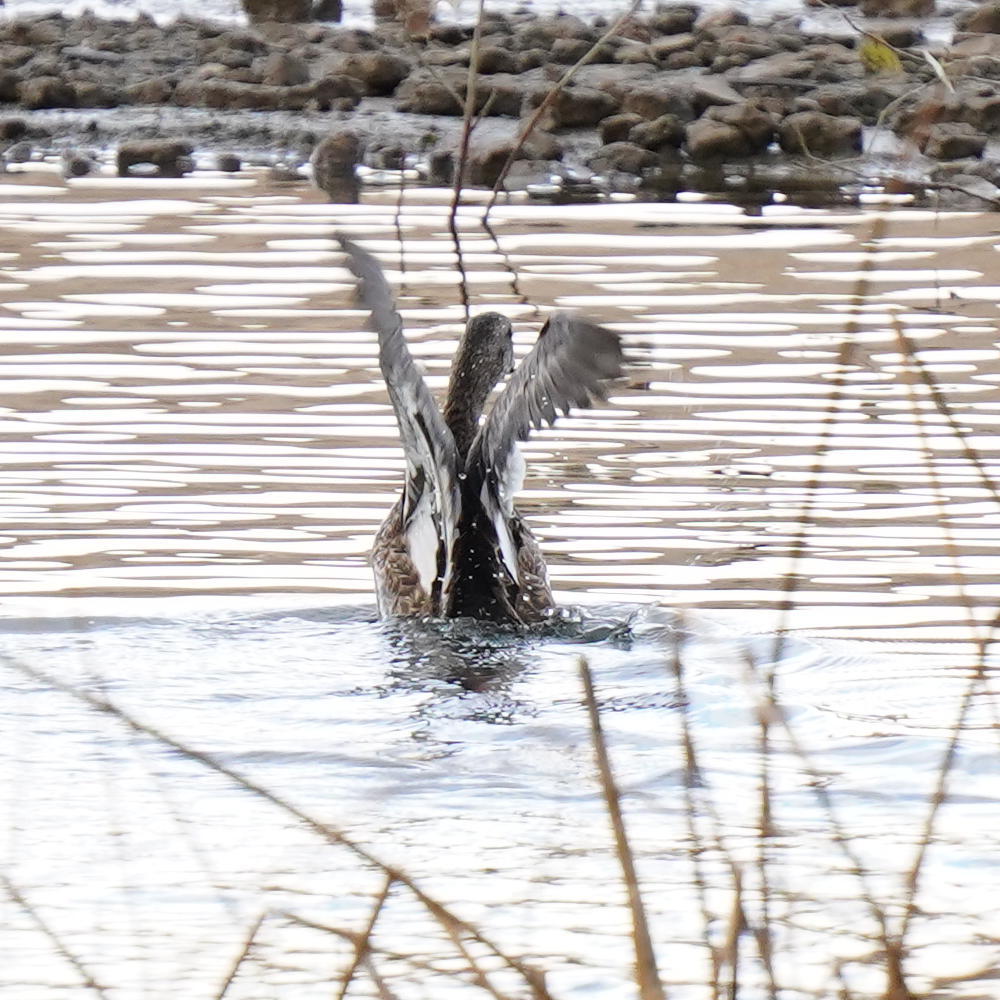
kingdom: Animalia
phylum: Chordata
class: Aves
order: Anseriformes
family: Anatidae
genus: Mareca
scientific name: Mareca strepera
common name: Gadwall
